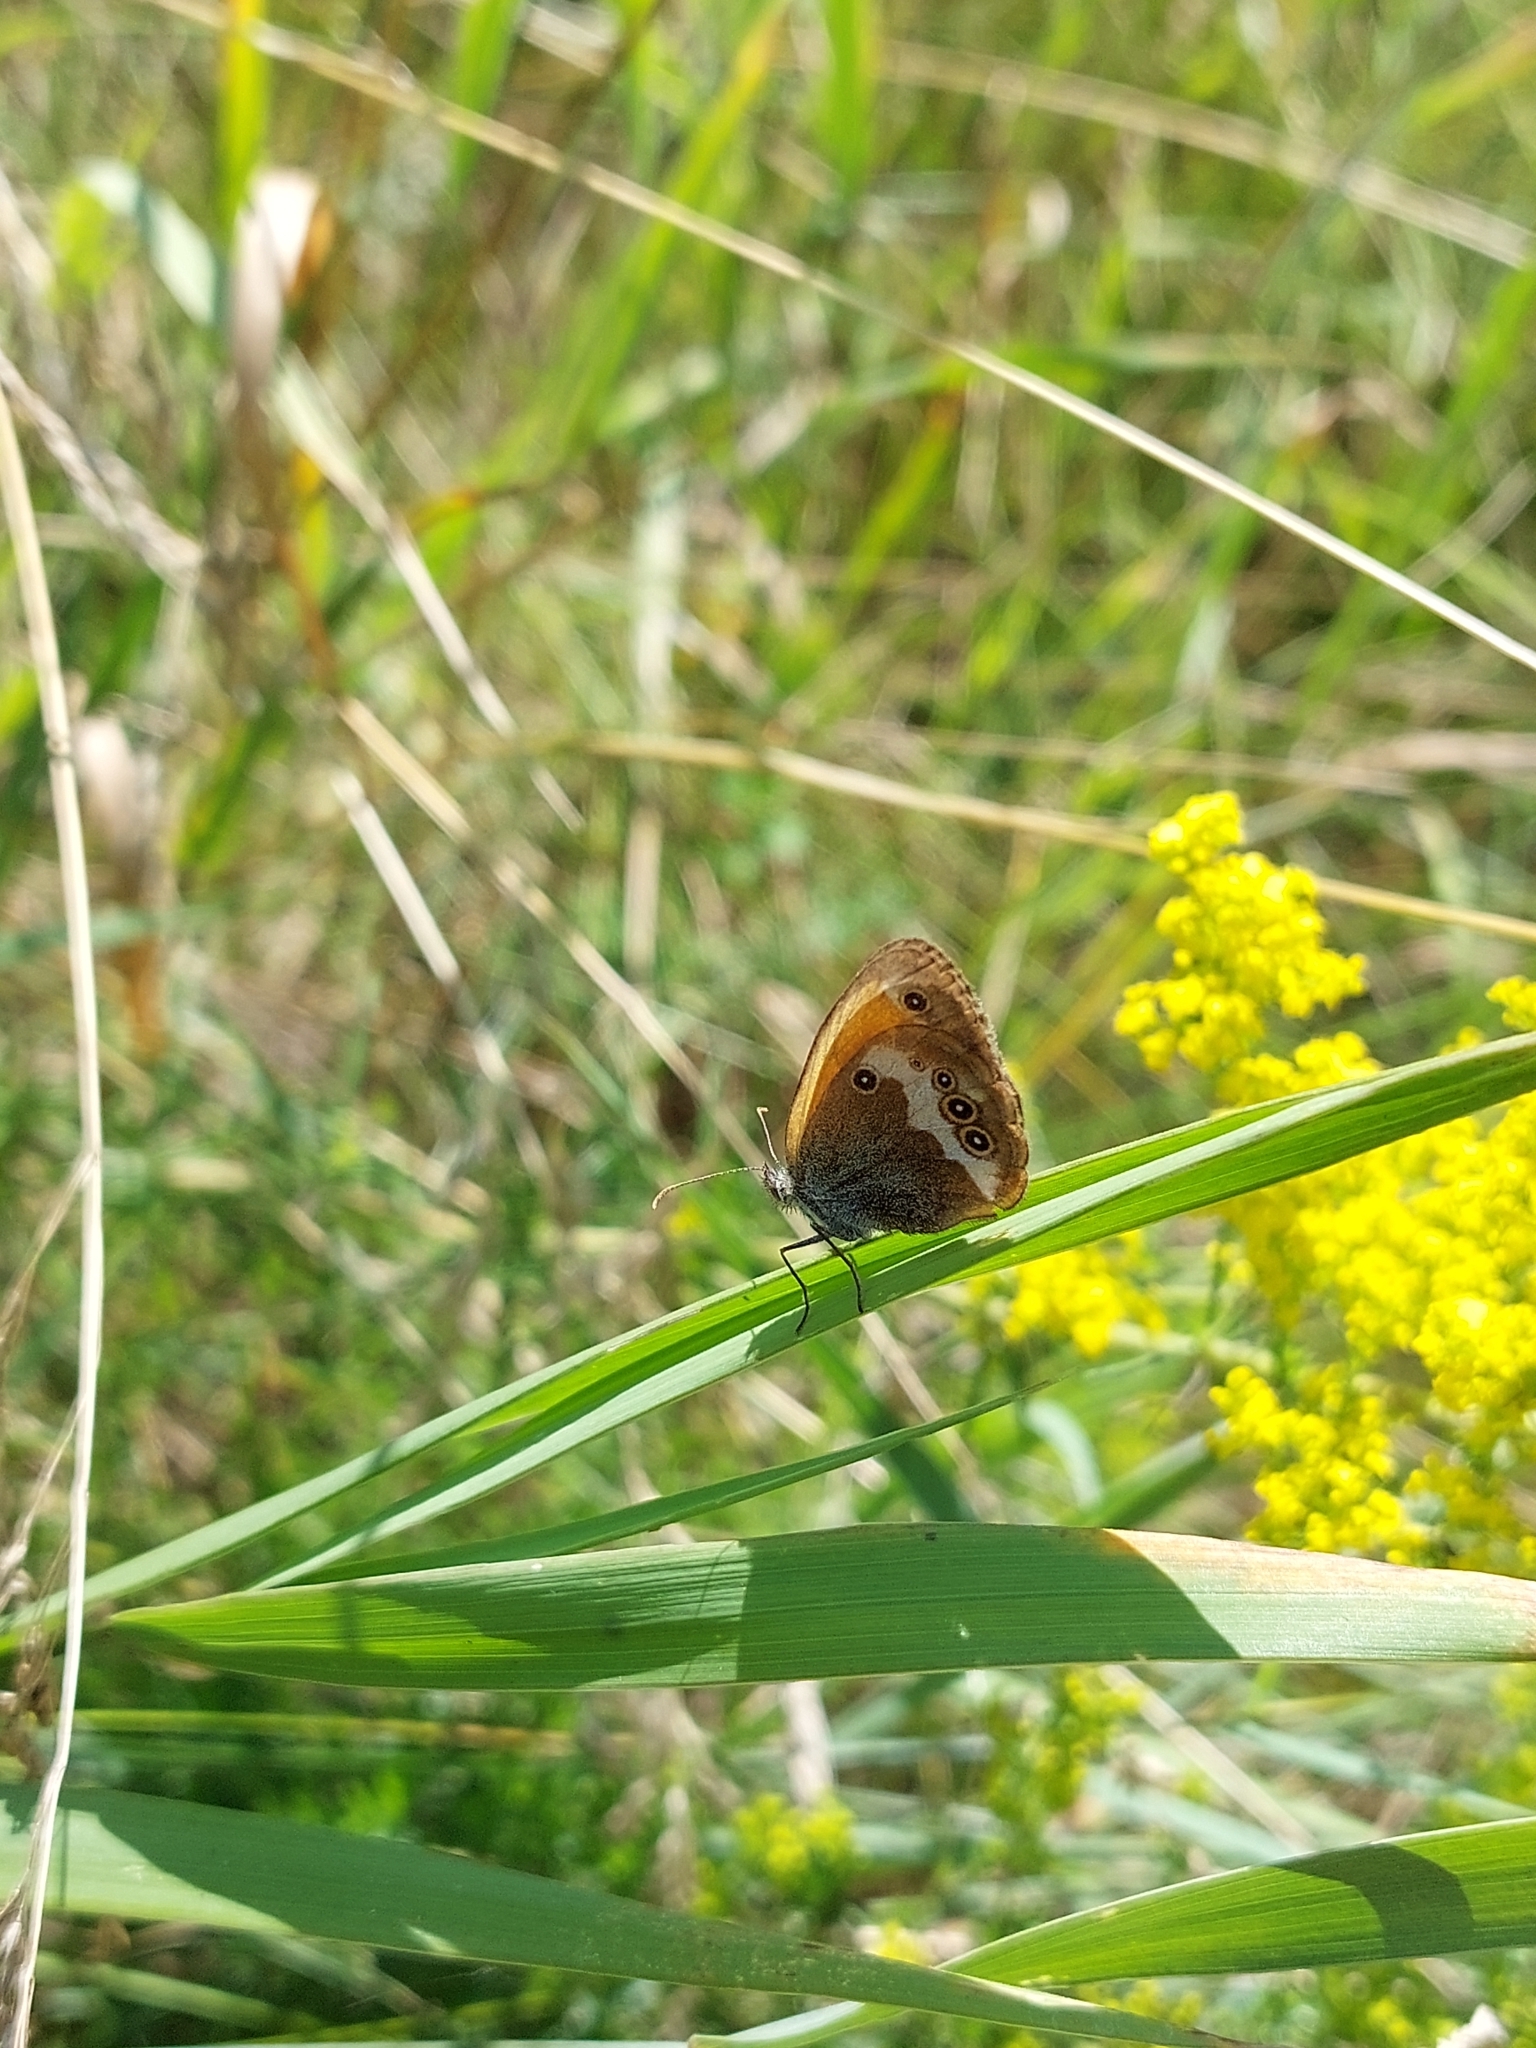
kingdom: Animalia
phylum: Arthropoda
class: Insecta
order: Lepidoptera
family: Nymphalidae
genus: Coenonympha
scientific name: Coenonympha arcania
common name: Pearly heath
